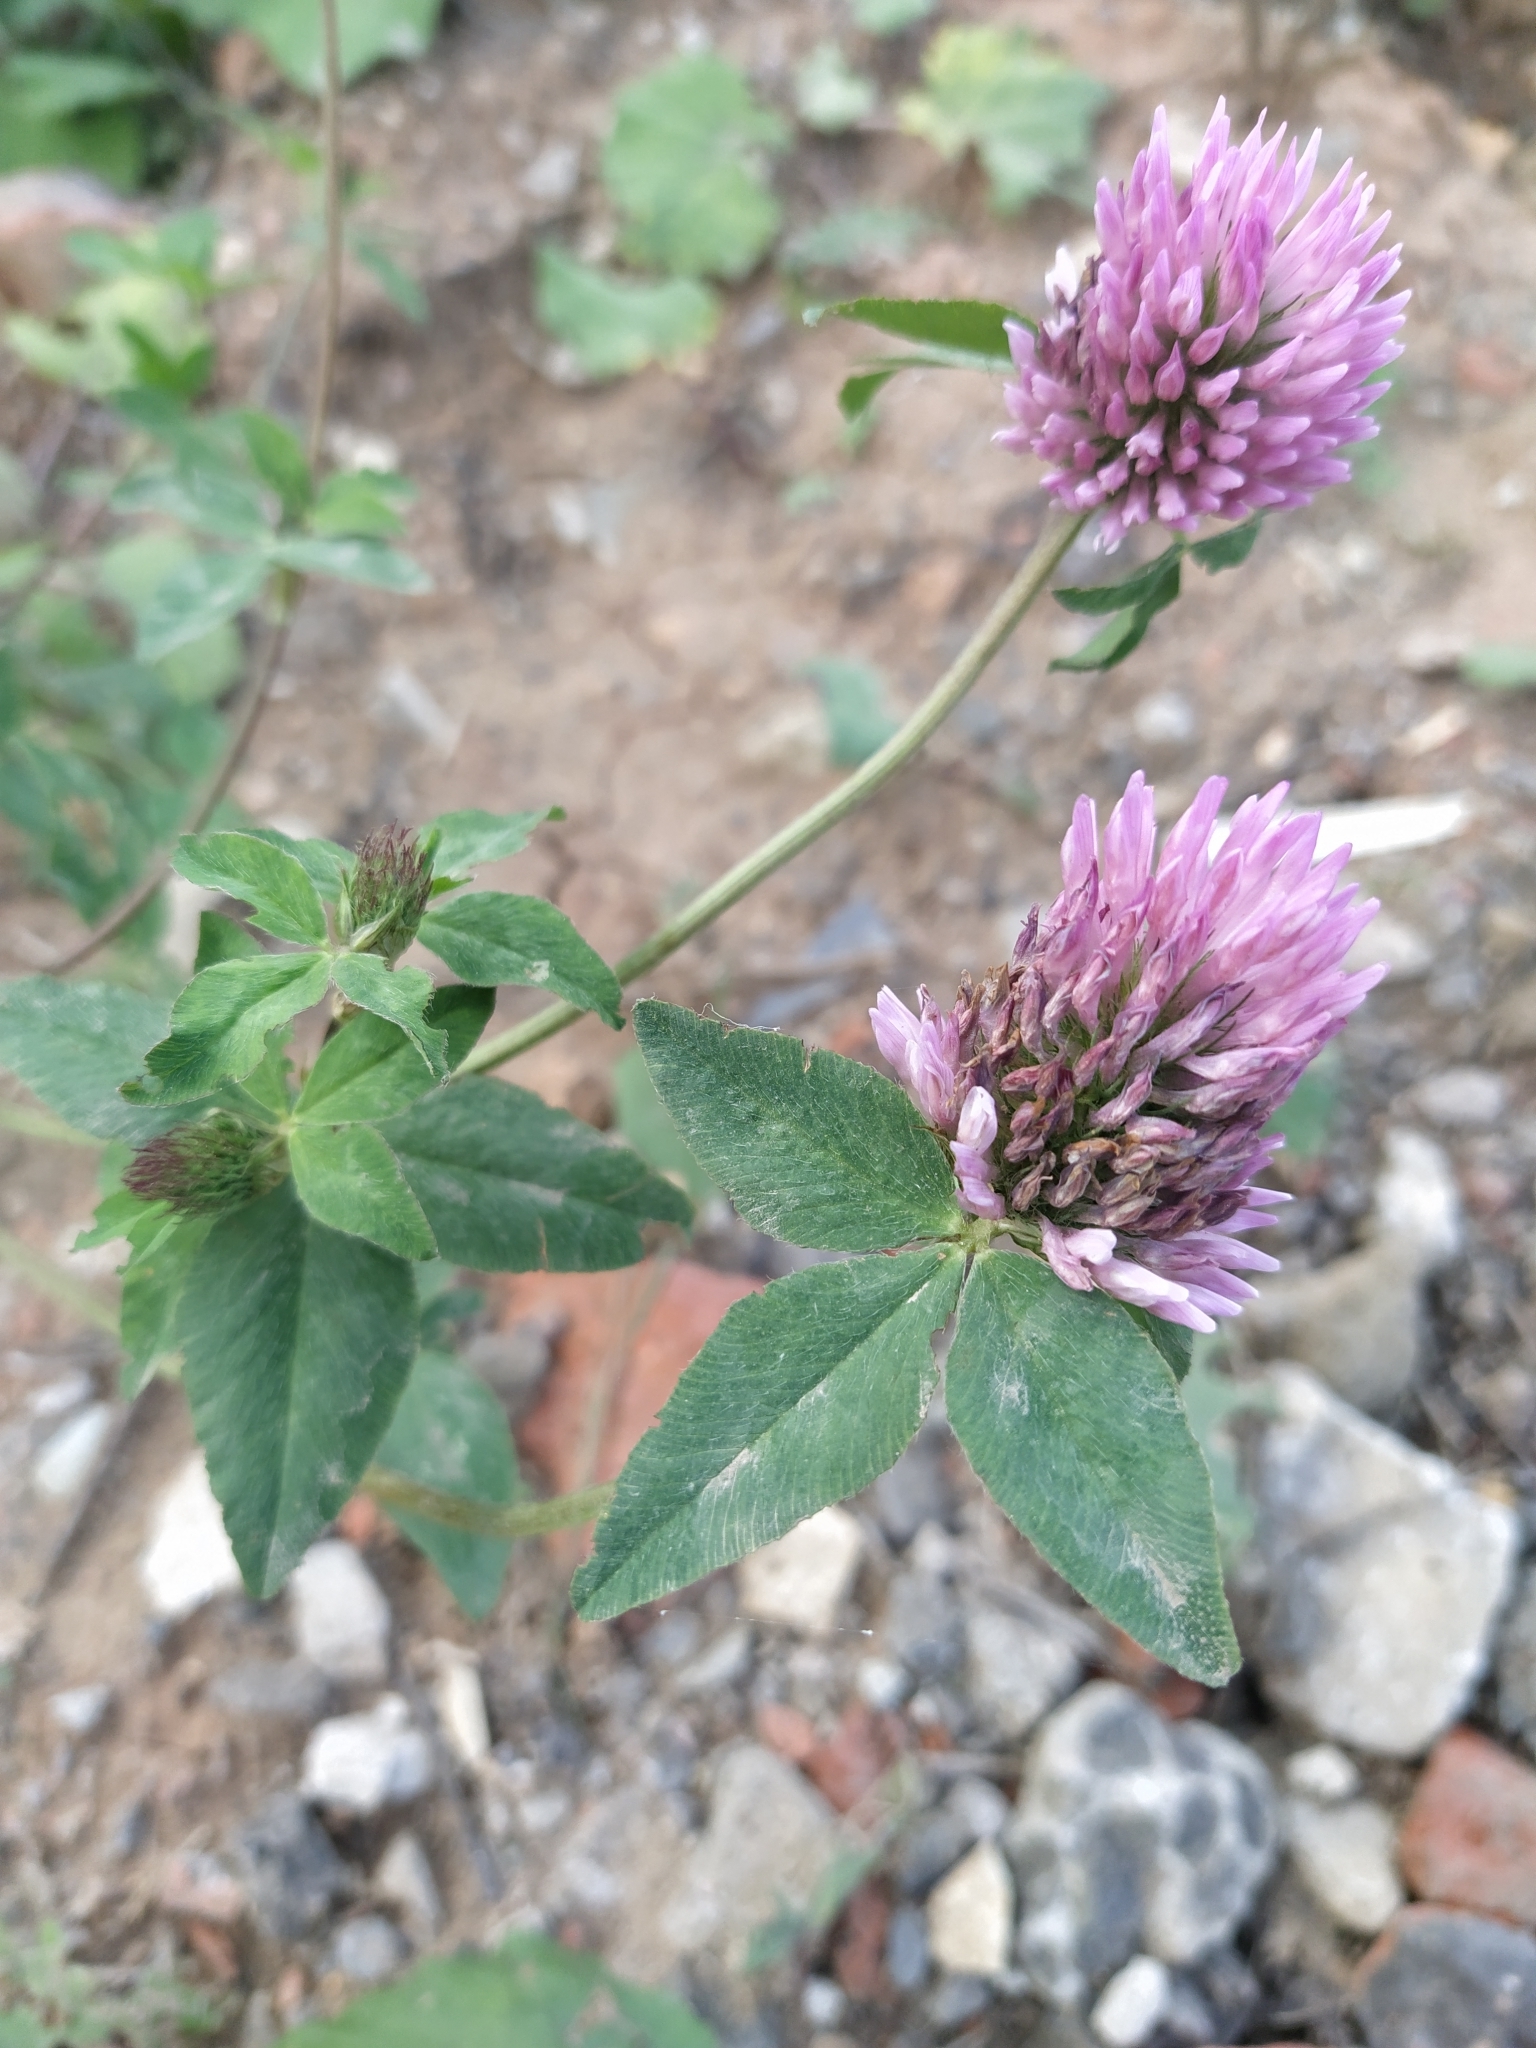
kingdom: Plantae
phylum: Tracheophyta
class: Magnoliopsida
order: Fabales
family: Fabaceae
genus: Trifolium
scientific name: Trifolium pratense
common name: Red clover
